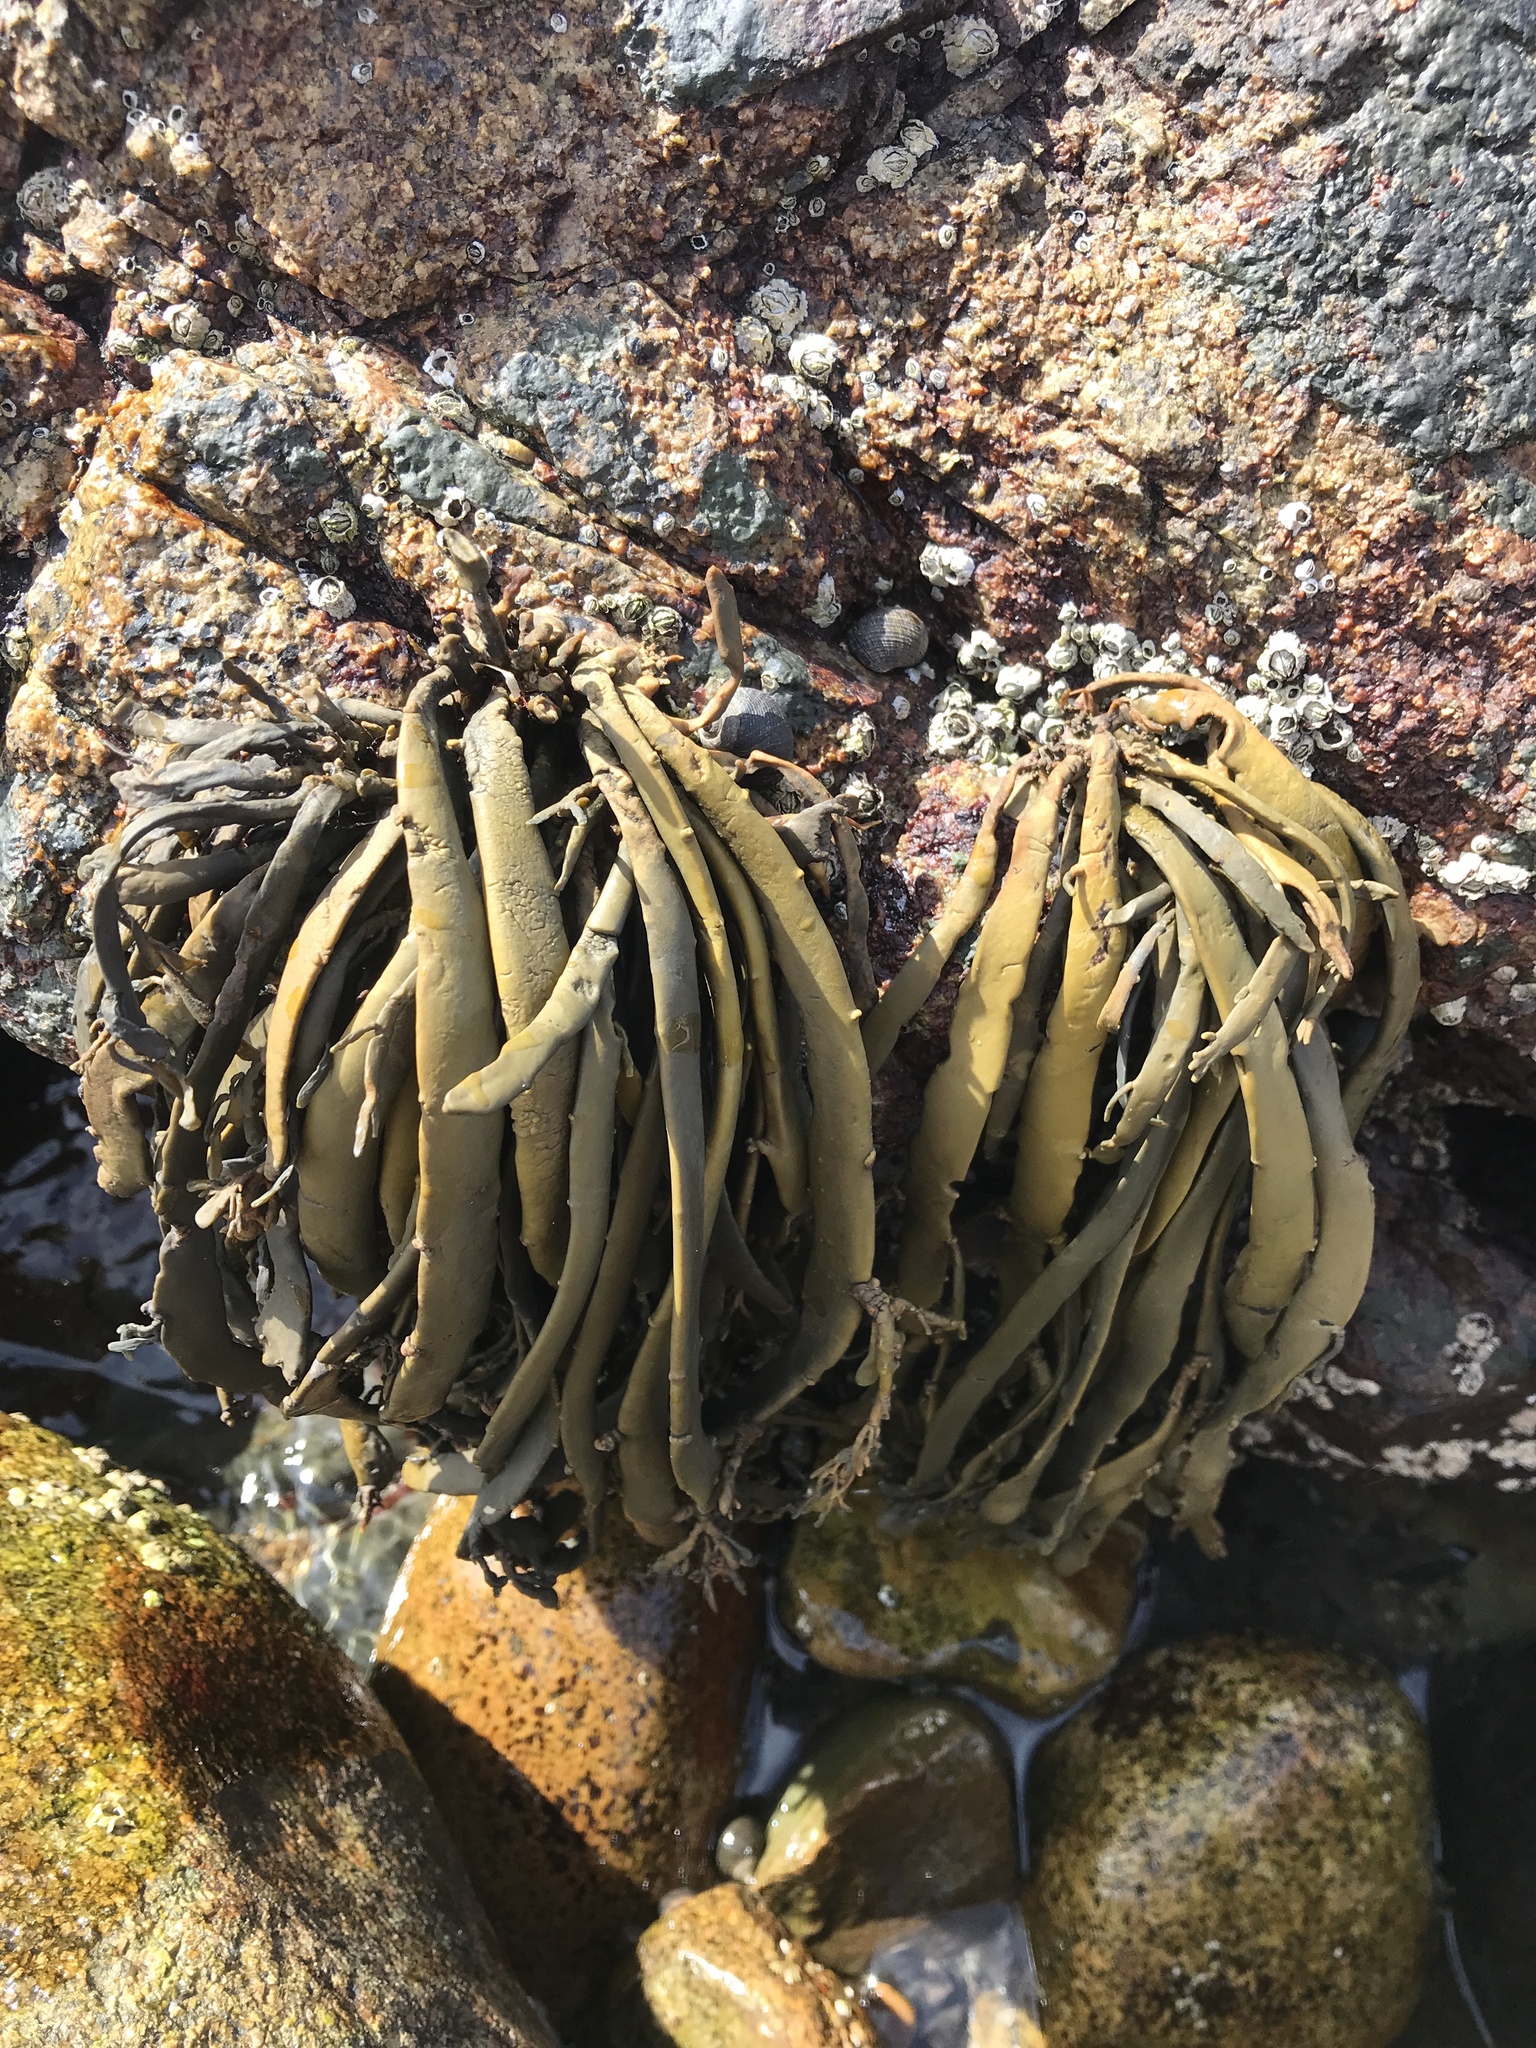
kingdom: Chromista
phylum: Ochrophyta
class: Phaeophyceae
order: Fucales
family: Fucaceae
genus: Ascophyllum
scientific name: Ascophyllum nodosum
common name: Knotted wrack
